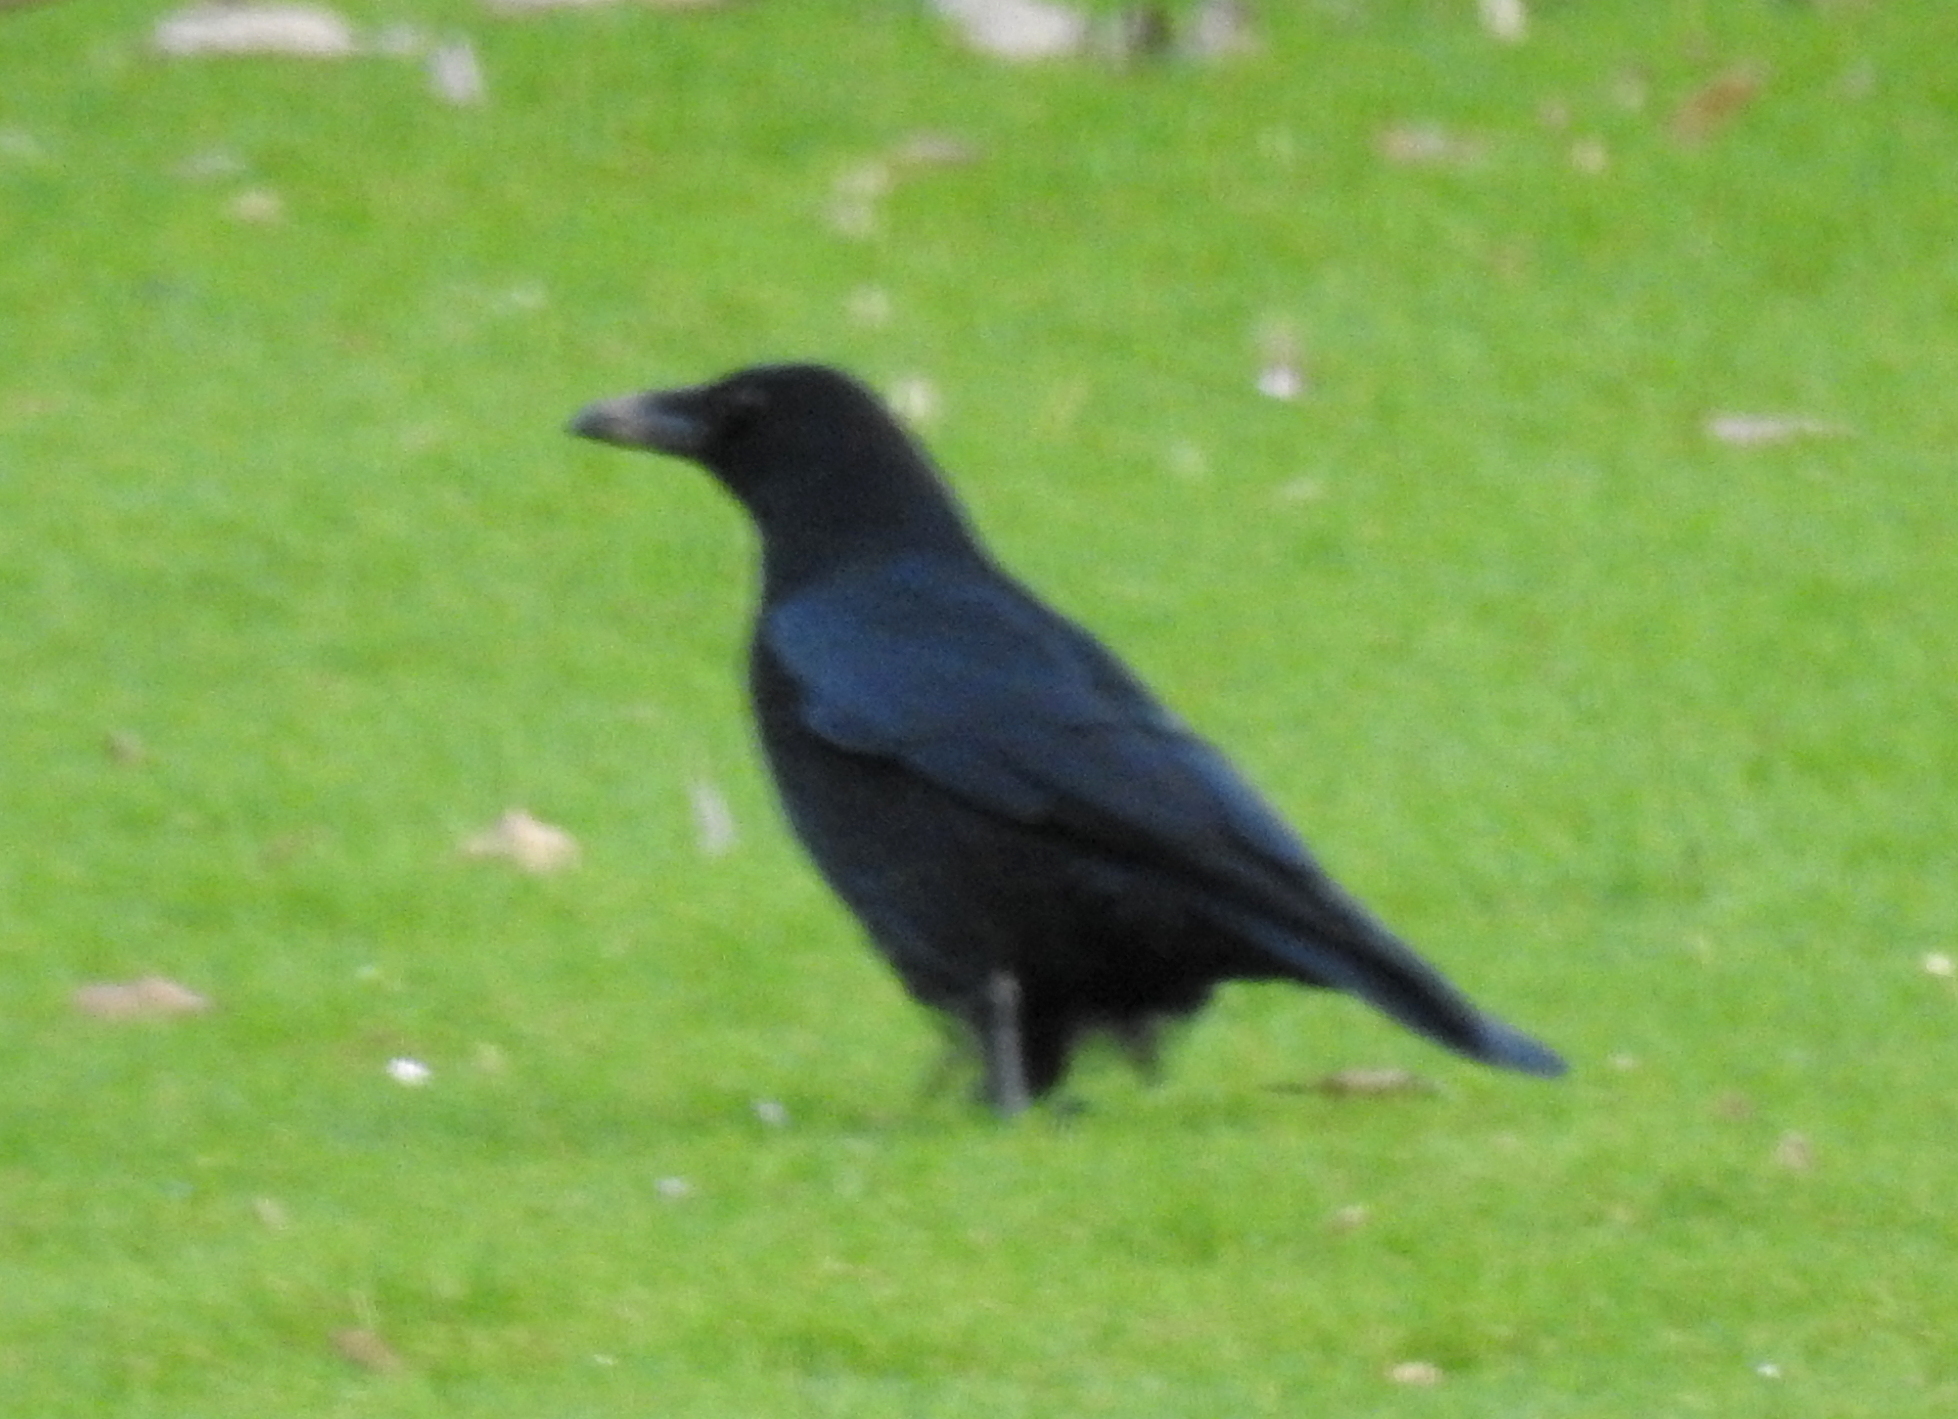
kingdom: Animalia
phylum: Chordata
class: Aves
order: Passeriformes
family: Corvidae
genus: Corvus
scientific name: Corvus corone
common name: Carrion crow
